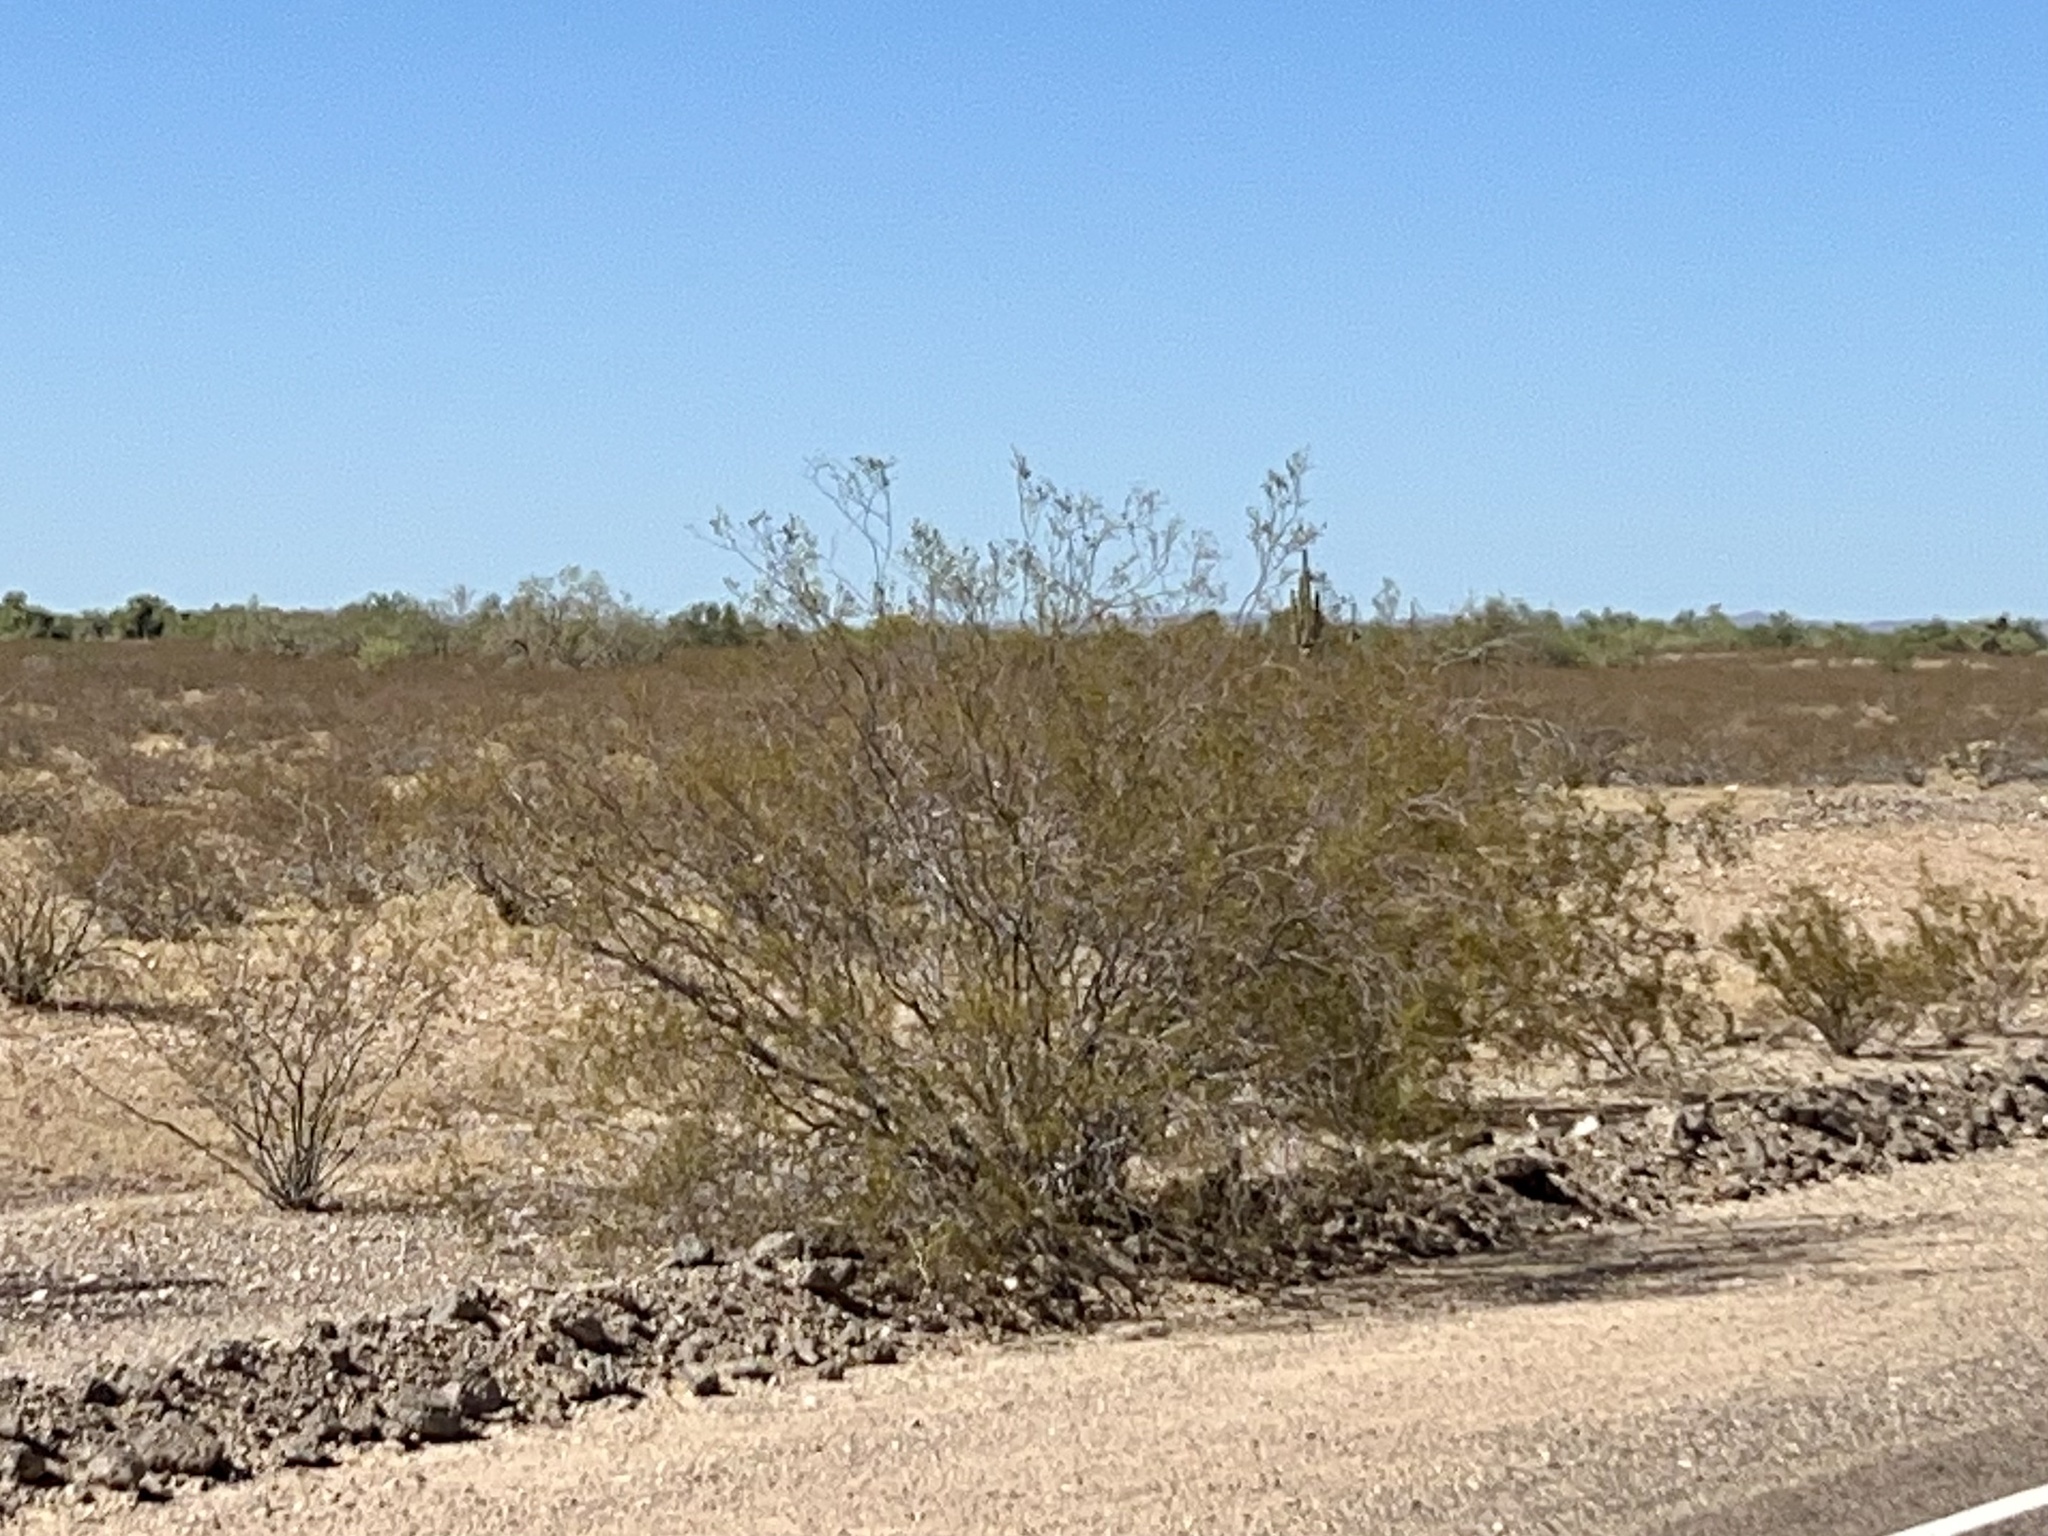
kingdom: Plantae
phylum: Tracheophyta
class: Magnoliopsida
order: Zygophyllales
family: Zygophyllaceae
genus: Larrea
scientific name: Larrea tridentata
